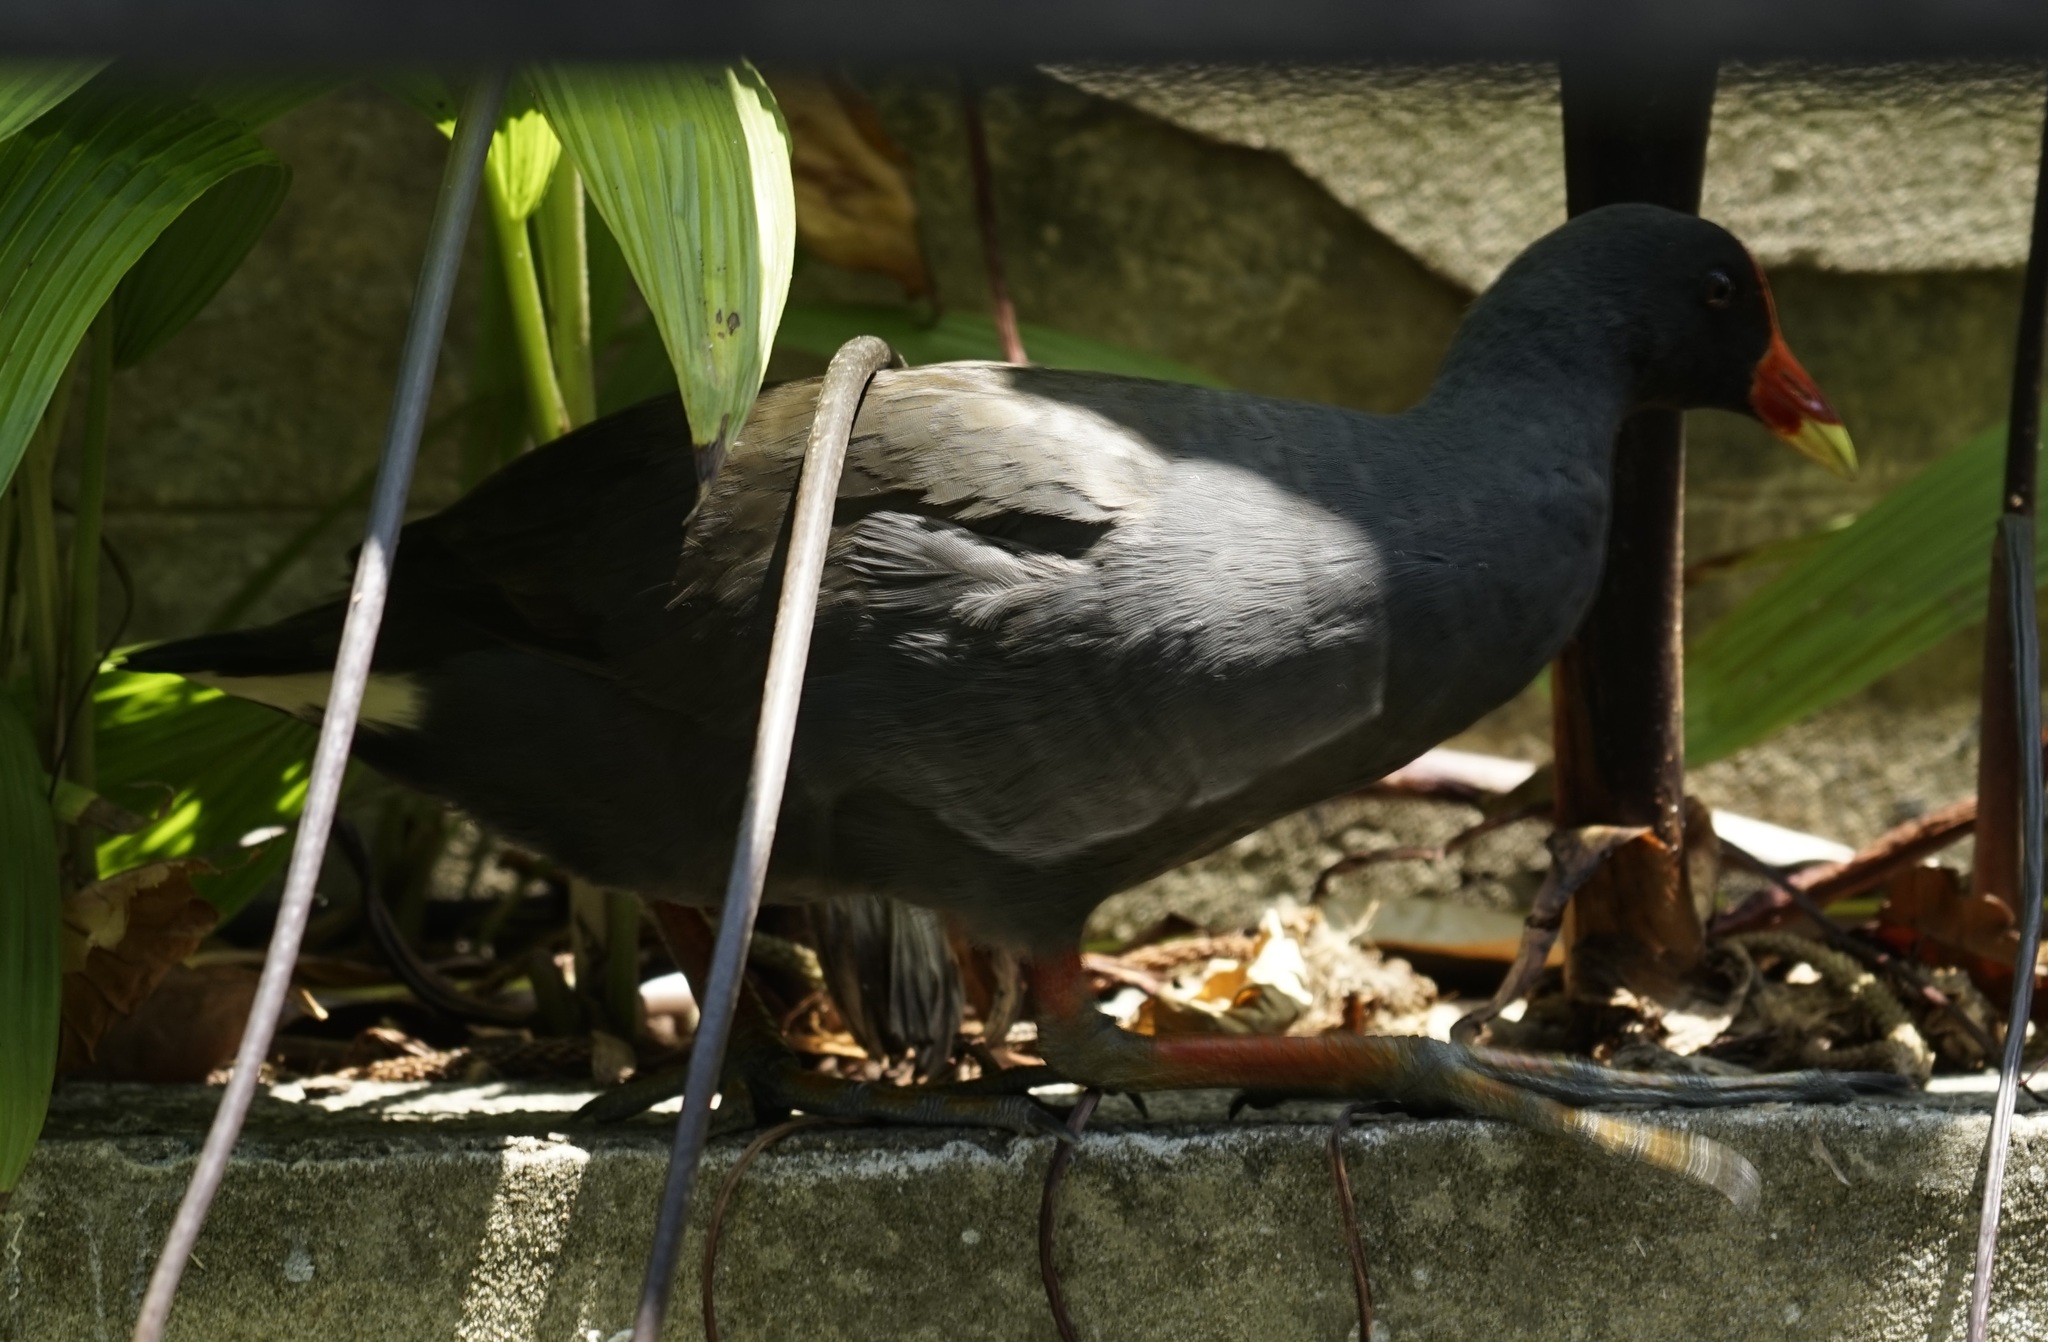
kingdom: Animalia
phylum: Chordata
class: Aves
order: Gruiformes
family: Rallidae
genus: Gallinula
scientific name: Gallinula tenebrosa
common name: Dusky moorhen
